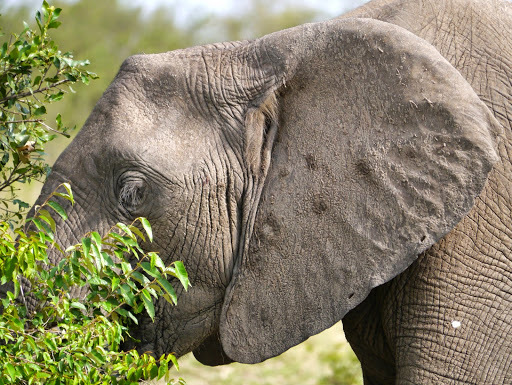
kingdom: Animalia
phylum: Chordata
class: Mammalia
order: Proboscidea
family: Elephantidae
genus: Loxodonta
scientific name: Loxodonta africana
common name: African elephant
